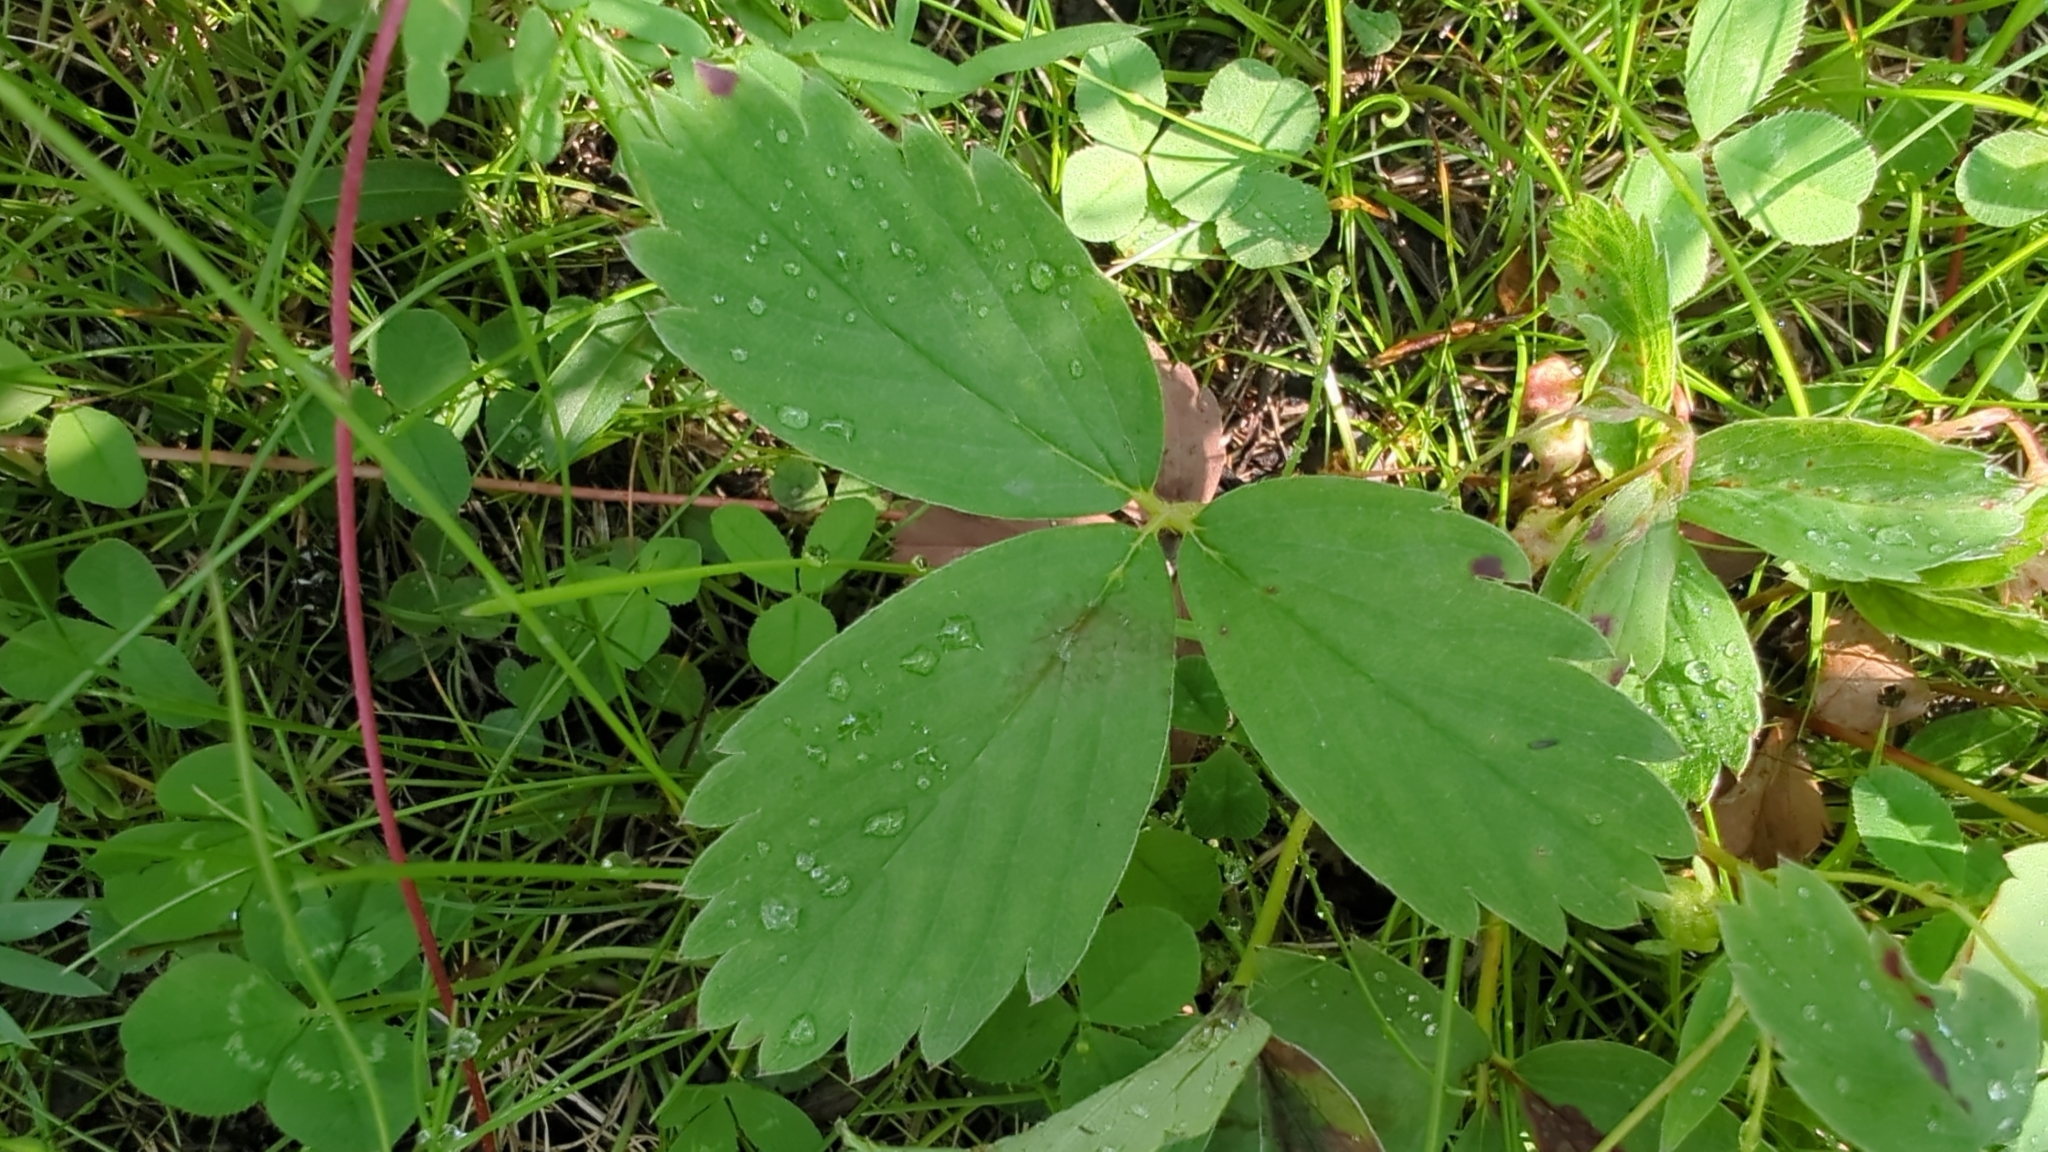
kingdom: Plantae
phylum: Tracheophyta
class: Magnoliopsida
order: Rosales
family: Rosaceae
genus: Fragaria
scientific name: Fragaria virginiana
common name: Thickleaved wild strawberry
